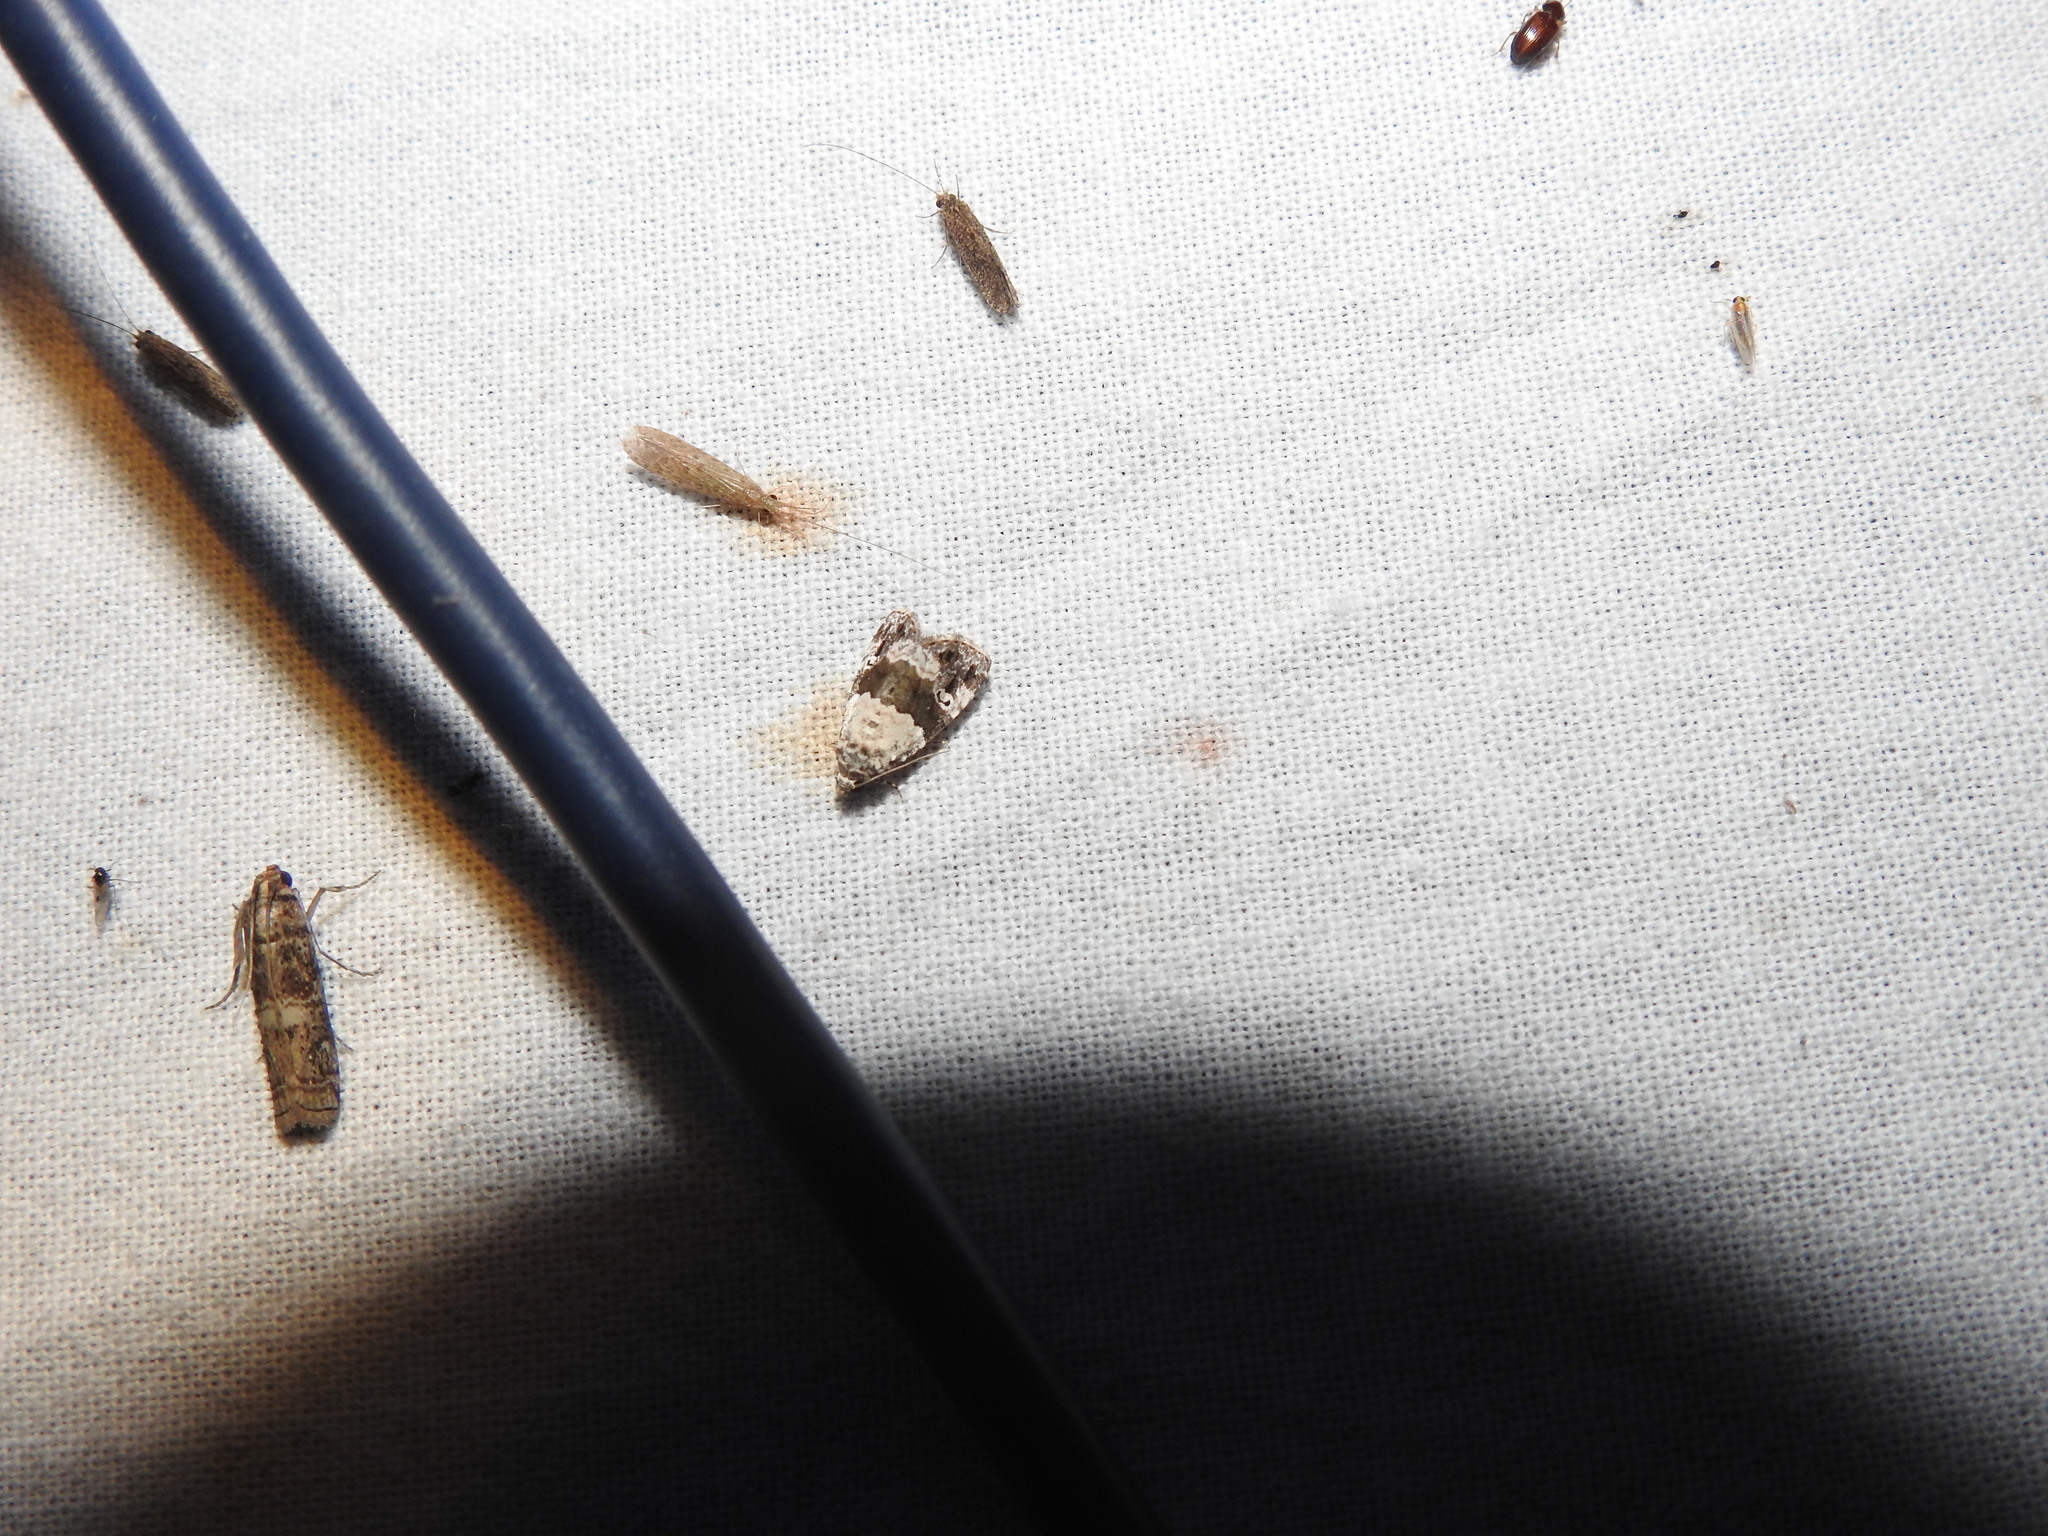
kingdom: Animalia
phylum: Arthropoda
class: Insecta
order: Lepidoptera
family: Noctuidae
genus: Maliattha
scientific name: Maliattha signifera
